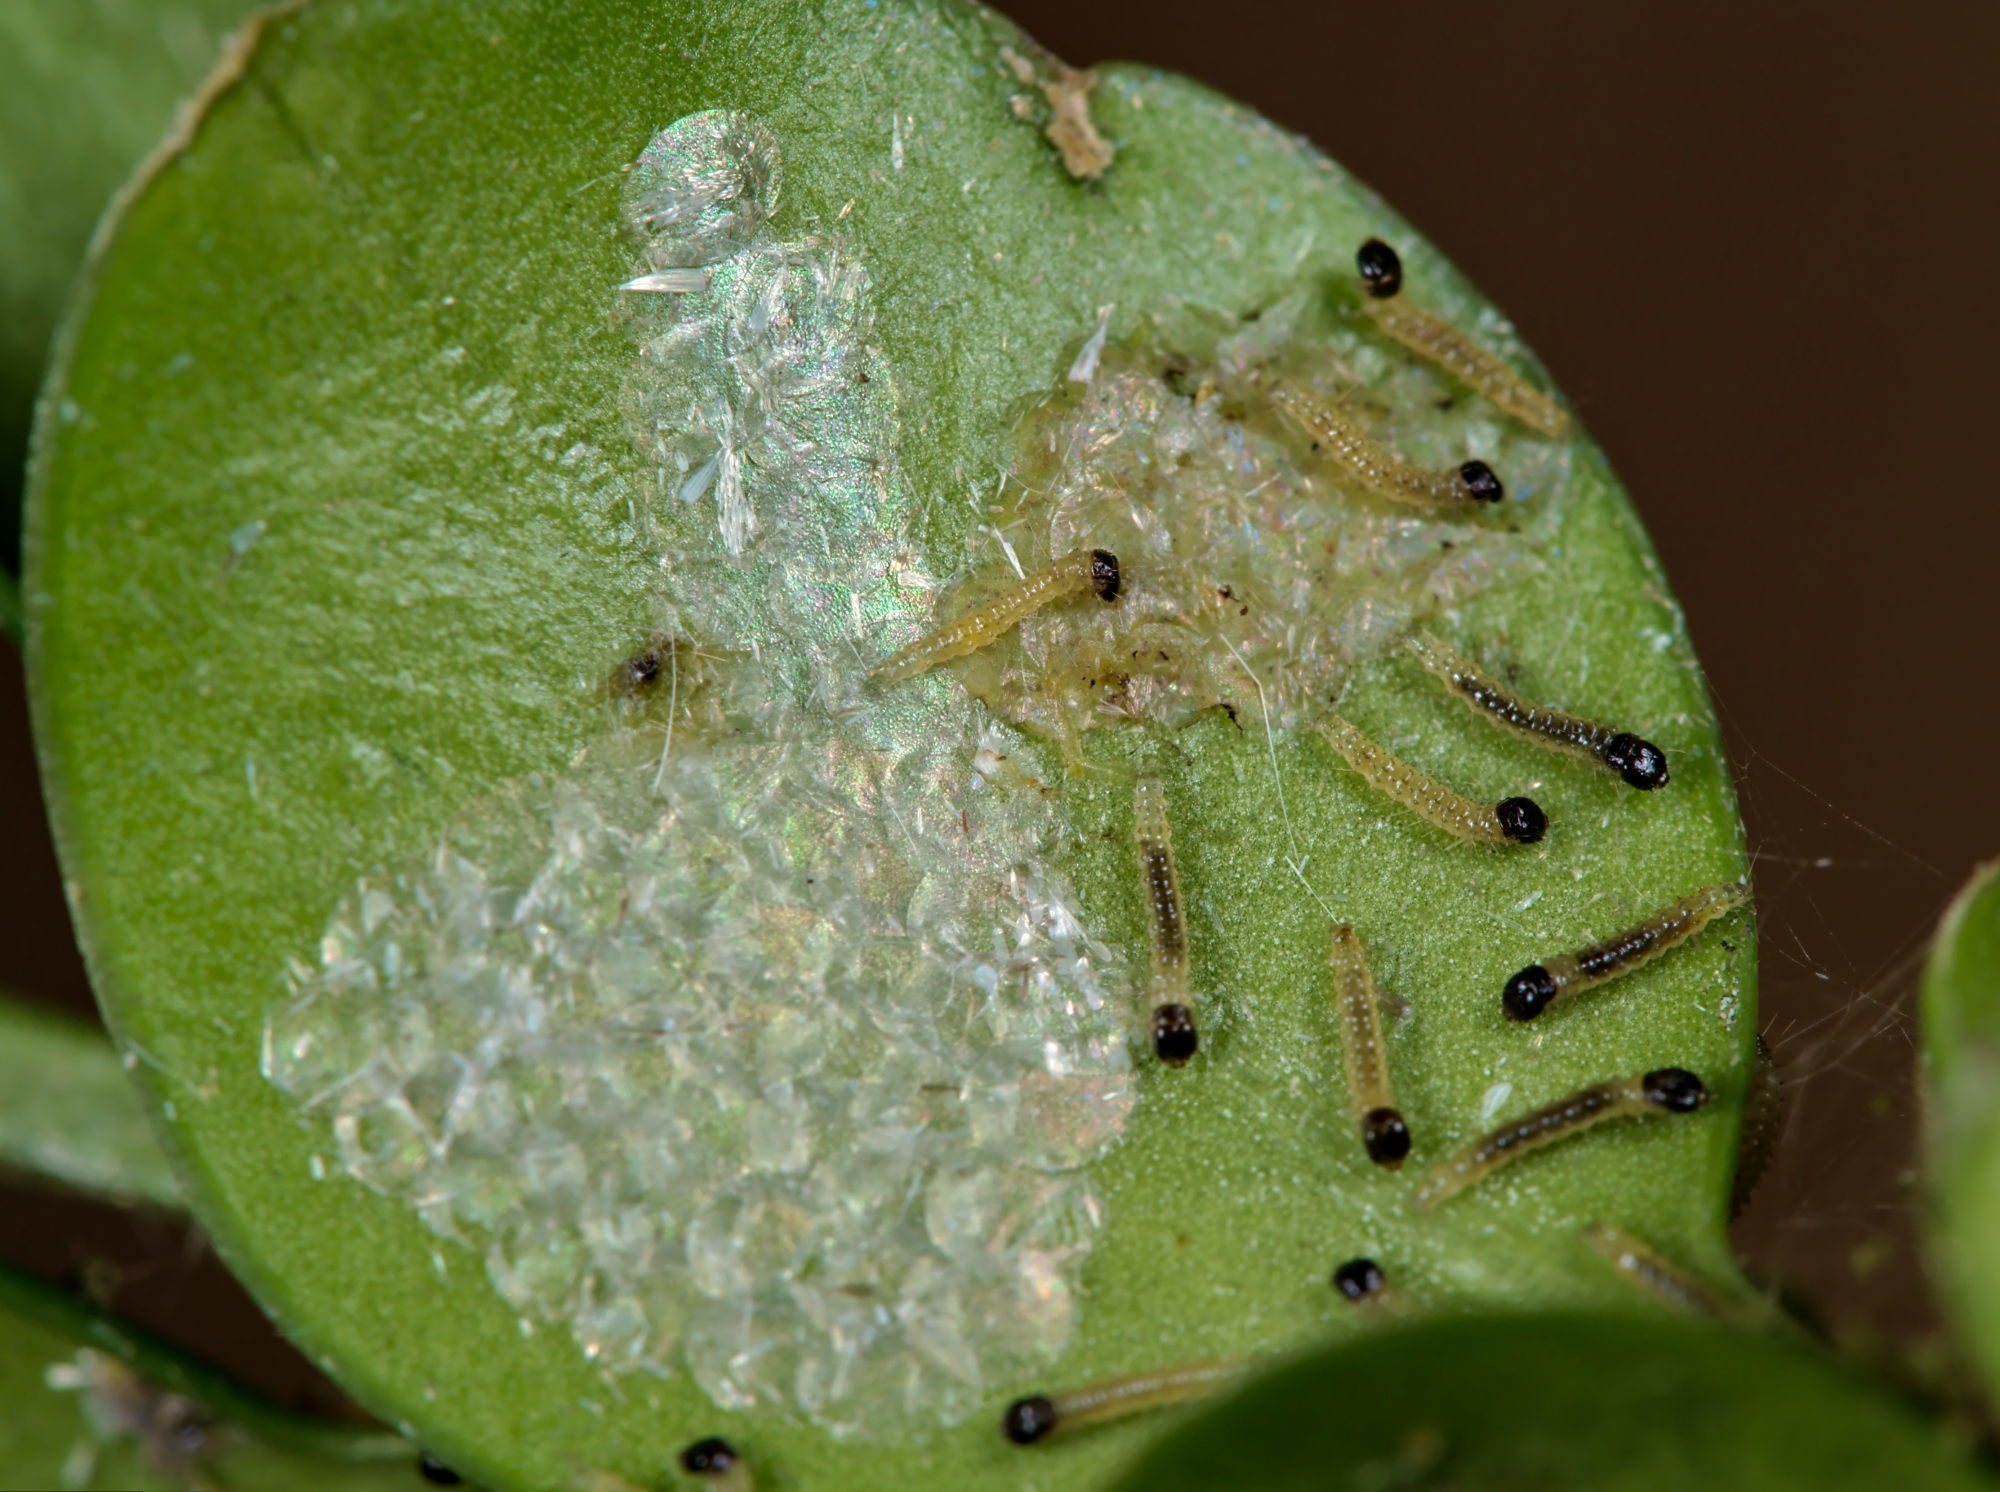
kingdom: Animalia
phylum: Arthropoda
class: Insecta
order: Lepidoptera
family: Crambidae
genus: Cydalima
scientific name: Cydalima perspectalis
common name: Box tree moth
